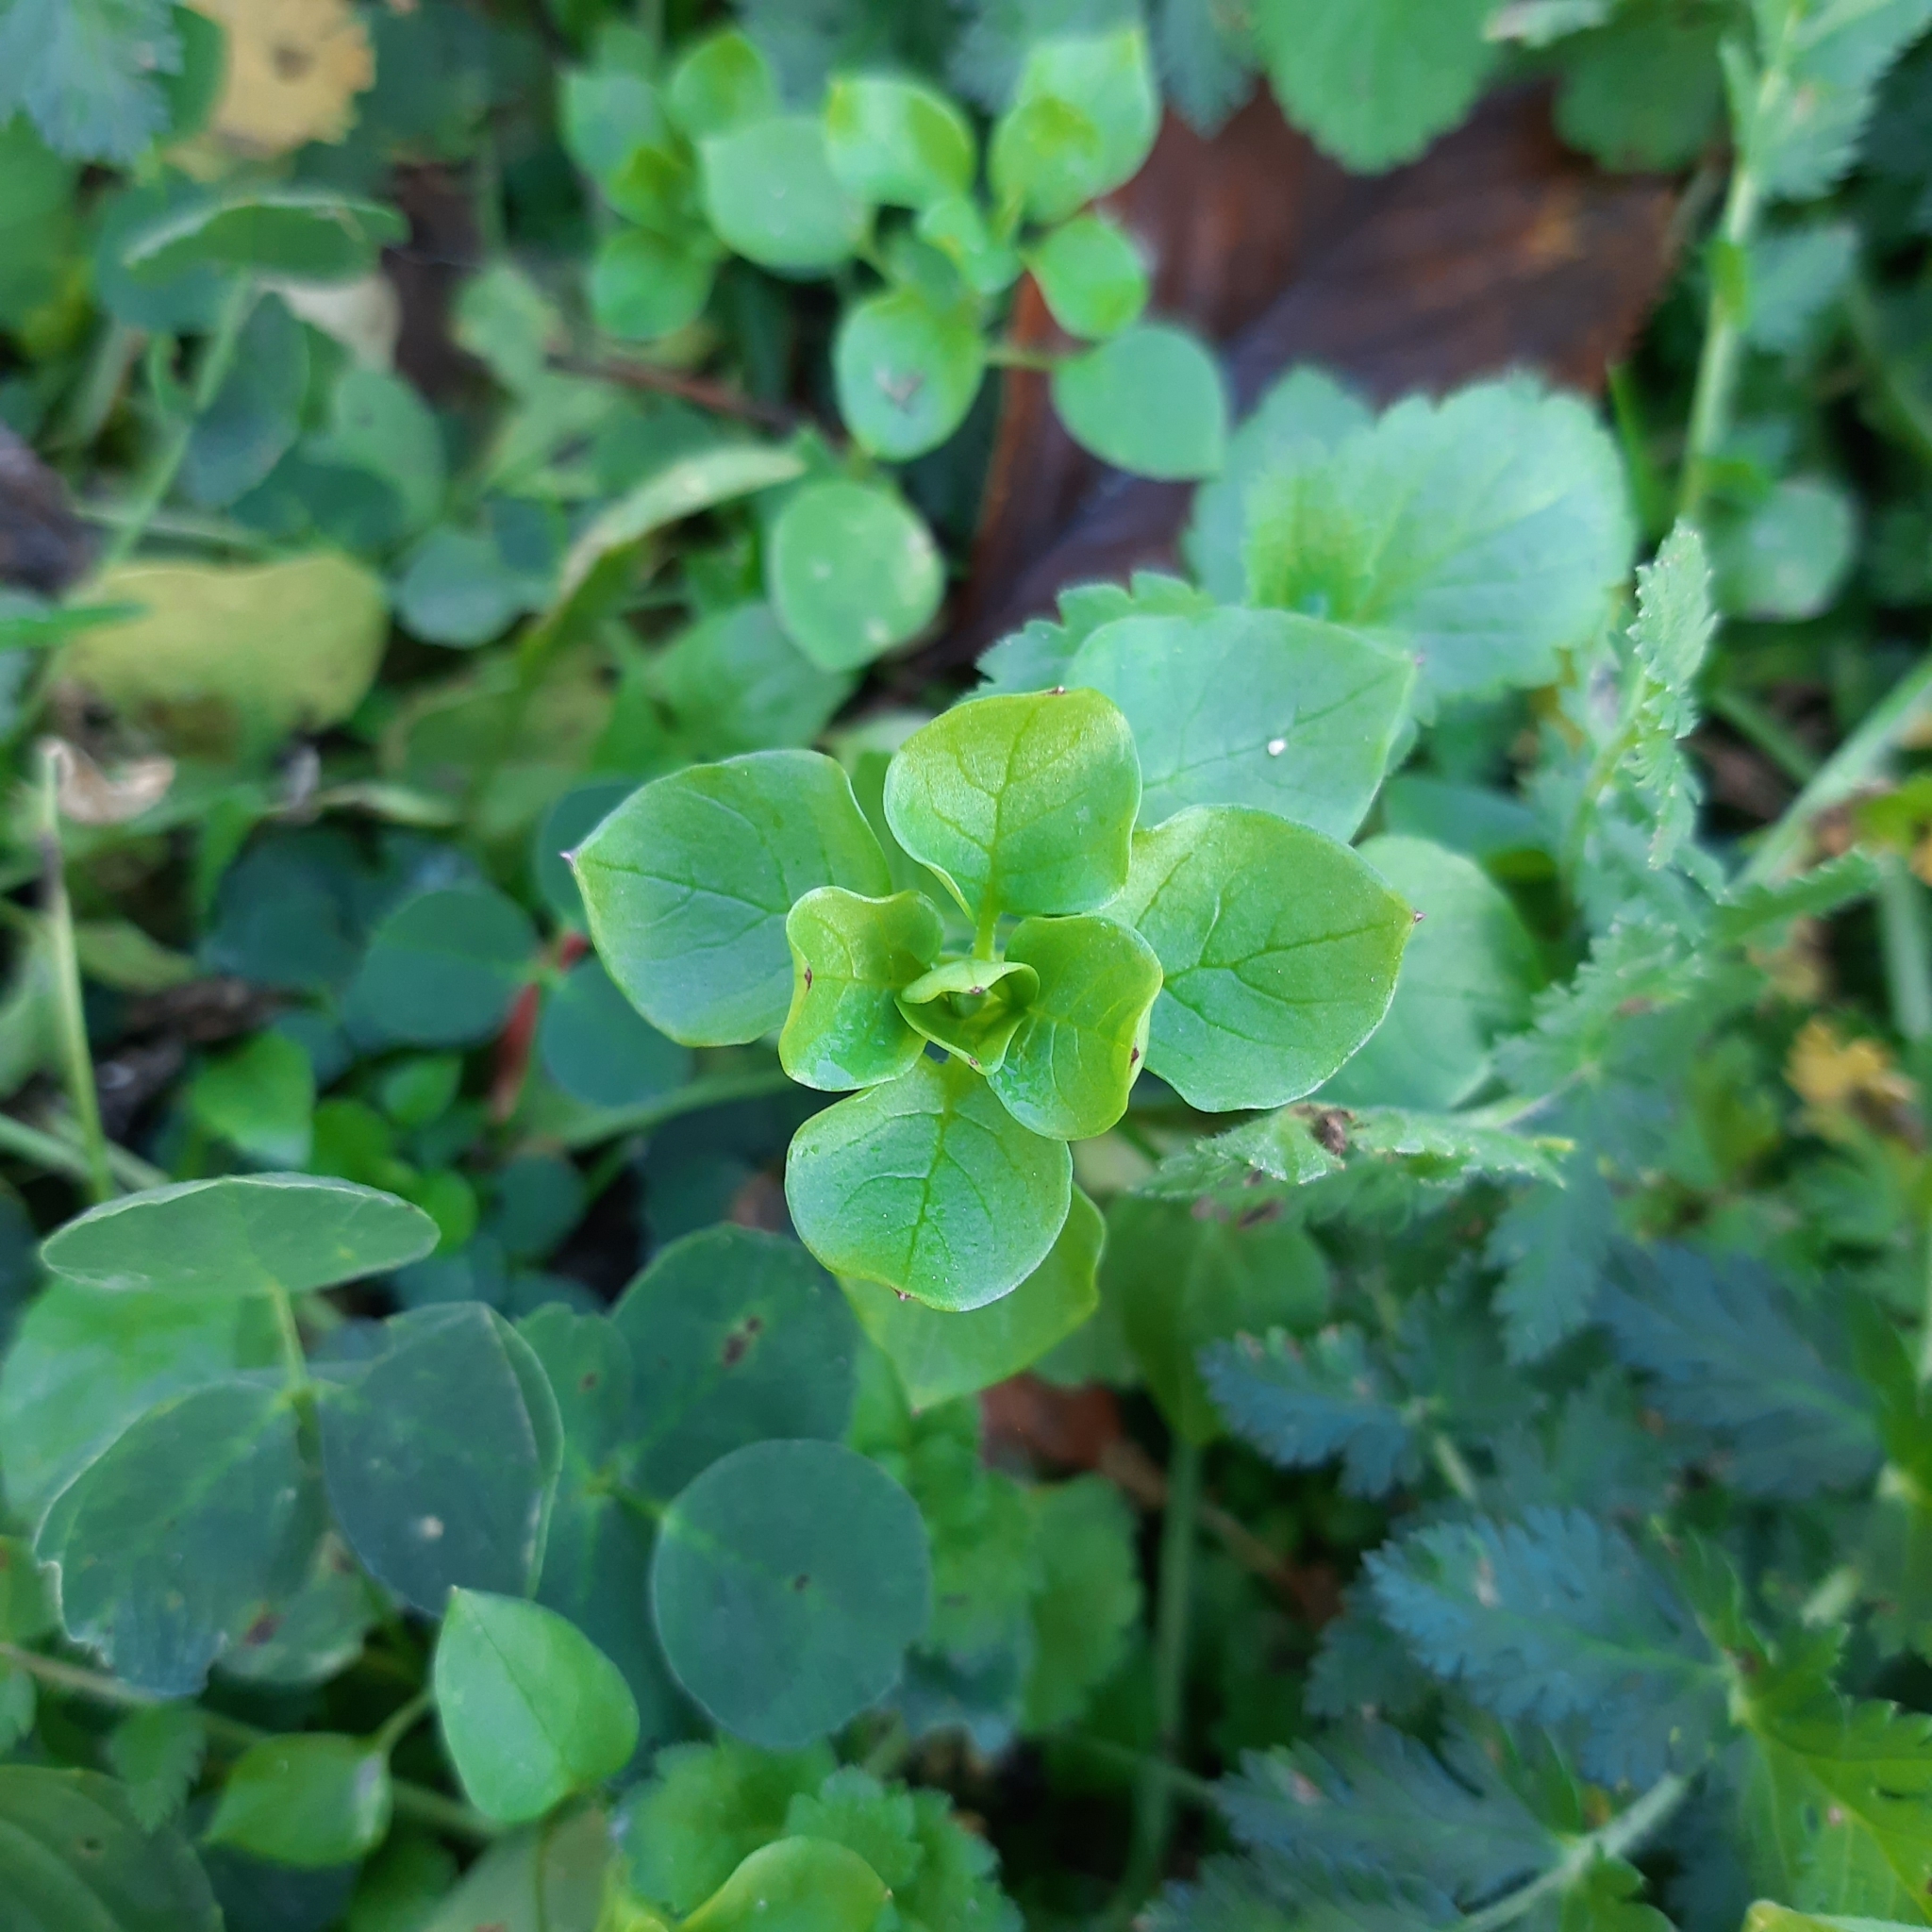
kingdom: Plantae
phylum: Tracheophyta
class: Magnoliopsida
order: Caryophyllales
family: Caryophyllaceae
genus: Stellaria
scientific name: Stellaria
